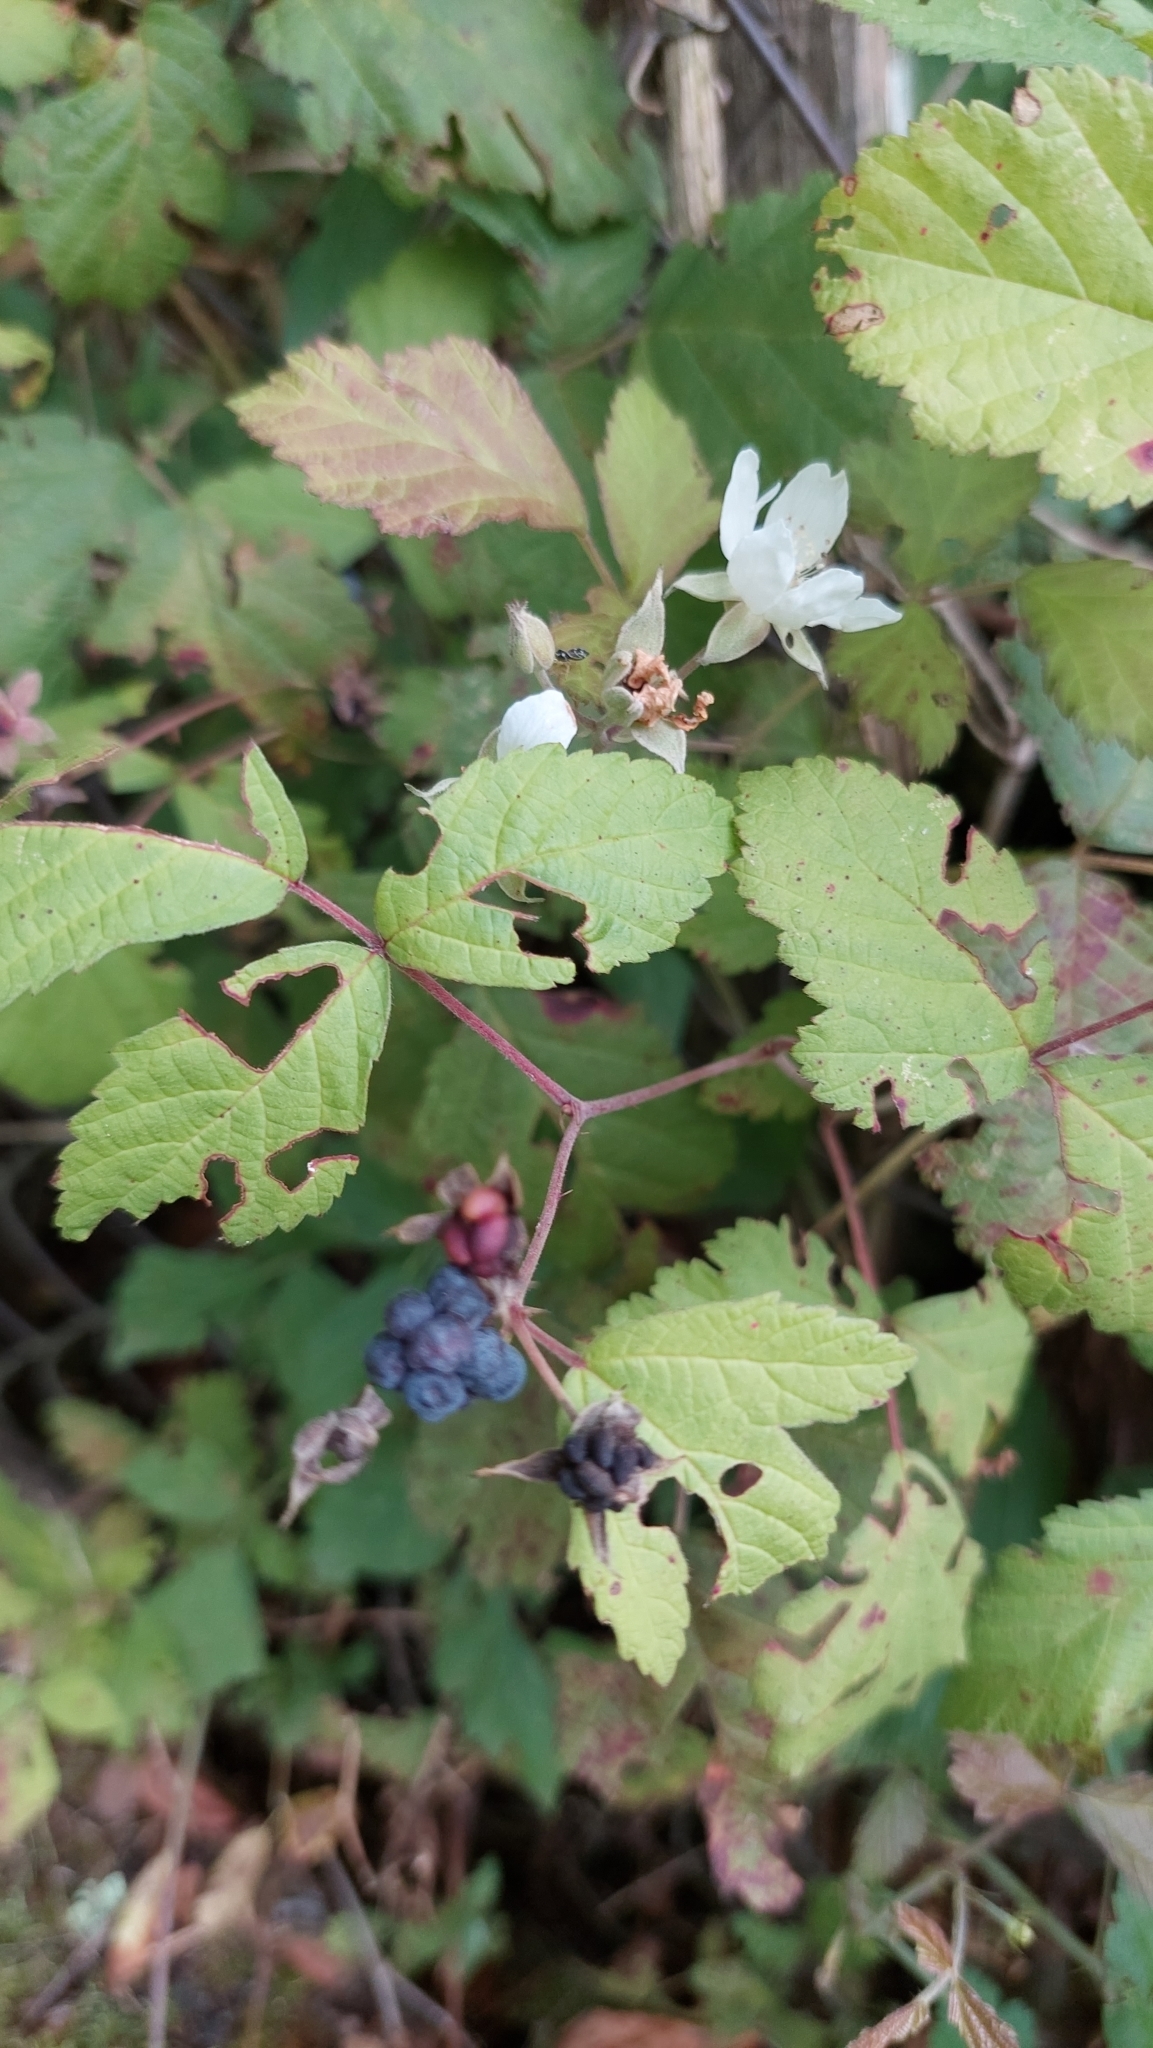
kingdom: Plantae
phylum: Tracheophyta
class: Magnoliopsida
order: Rosales
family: Rosaceae
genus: Rubus
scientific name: Rubus caesius
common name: Dewberry
